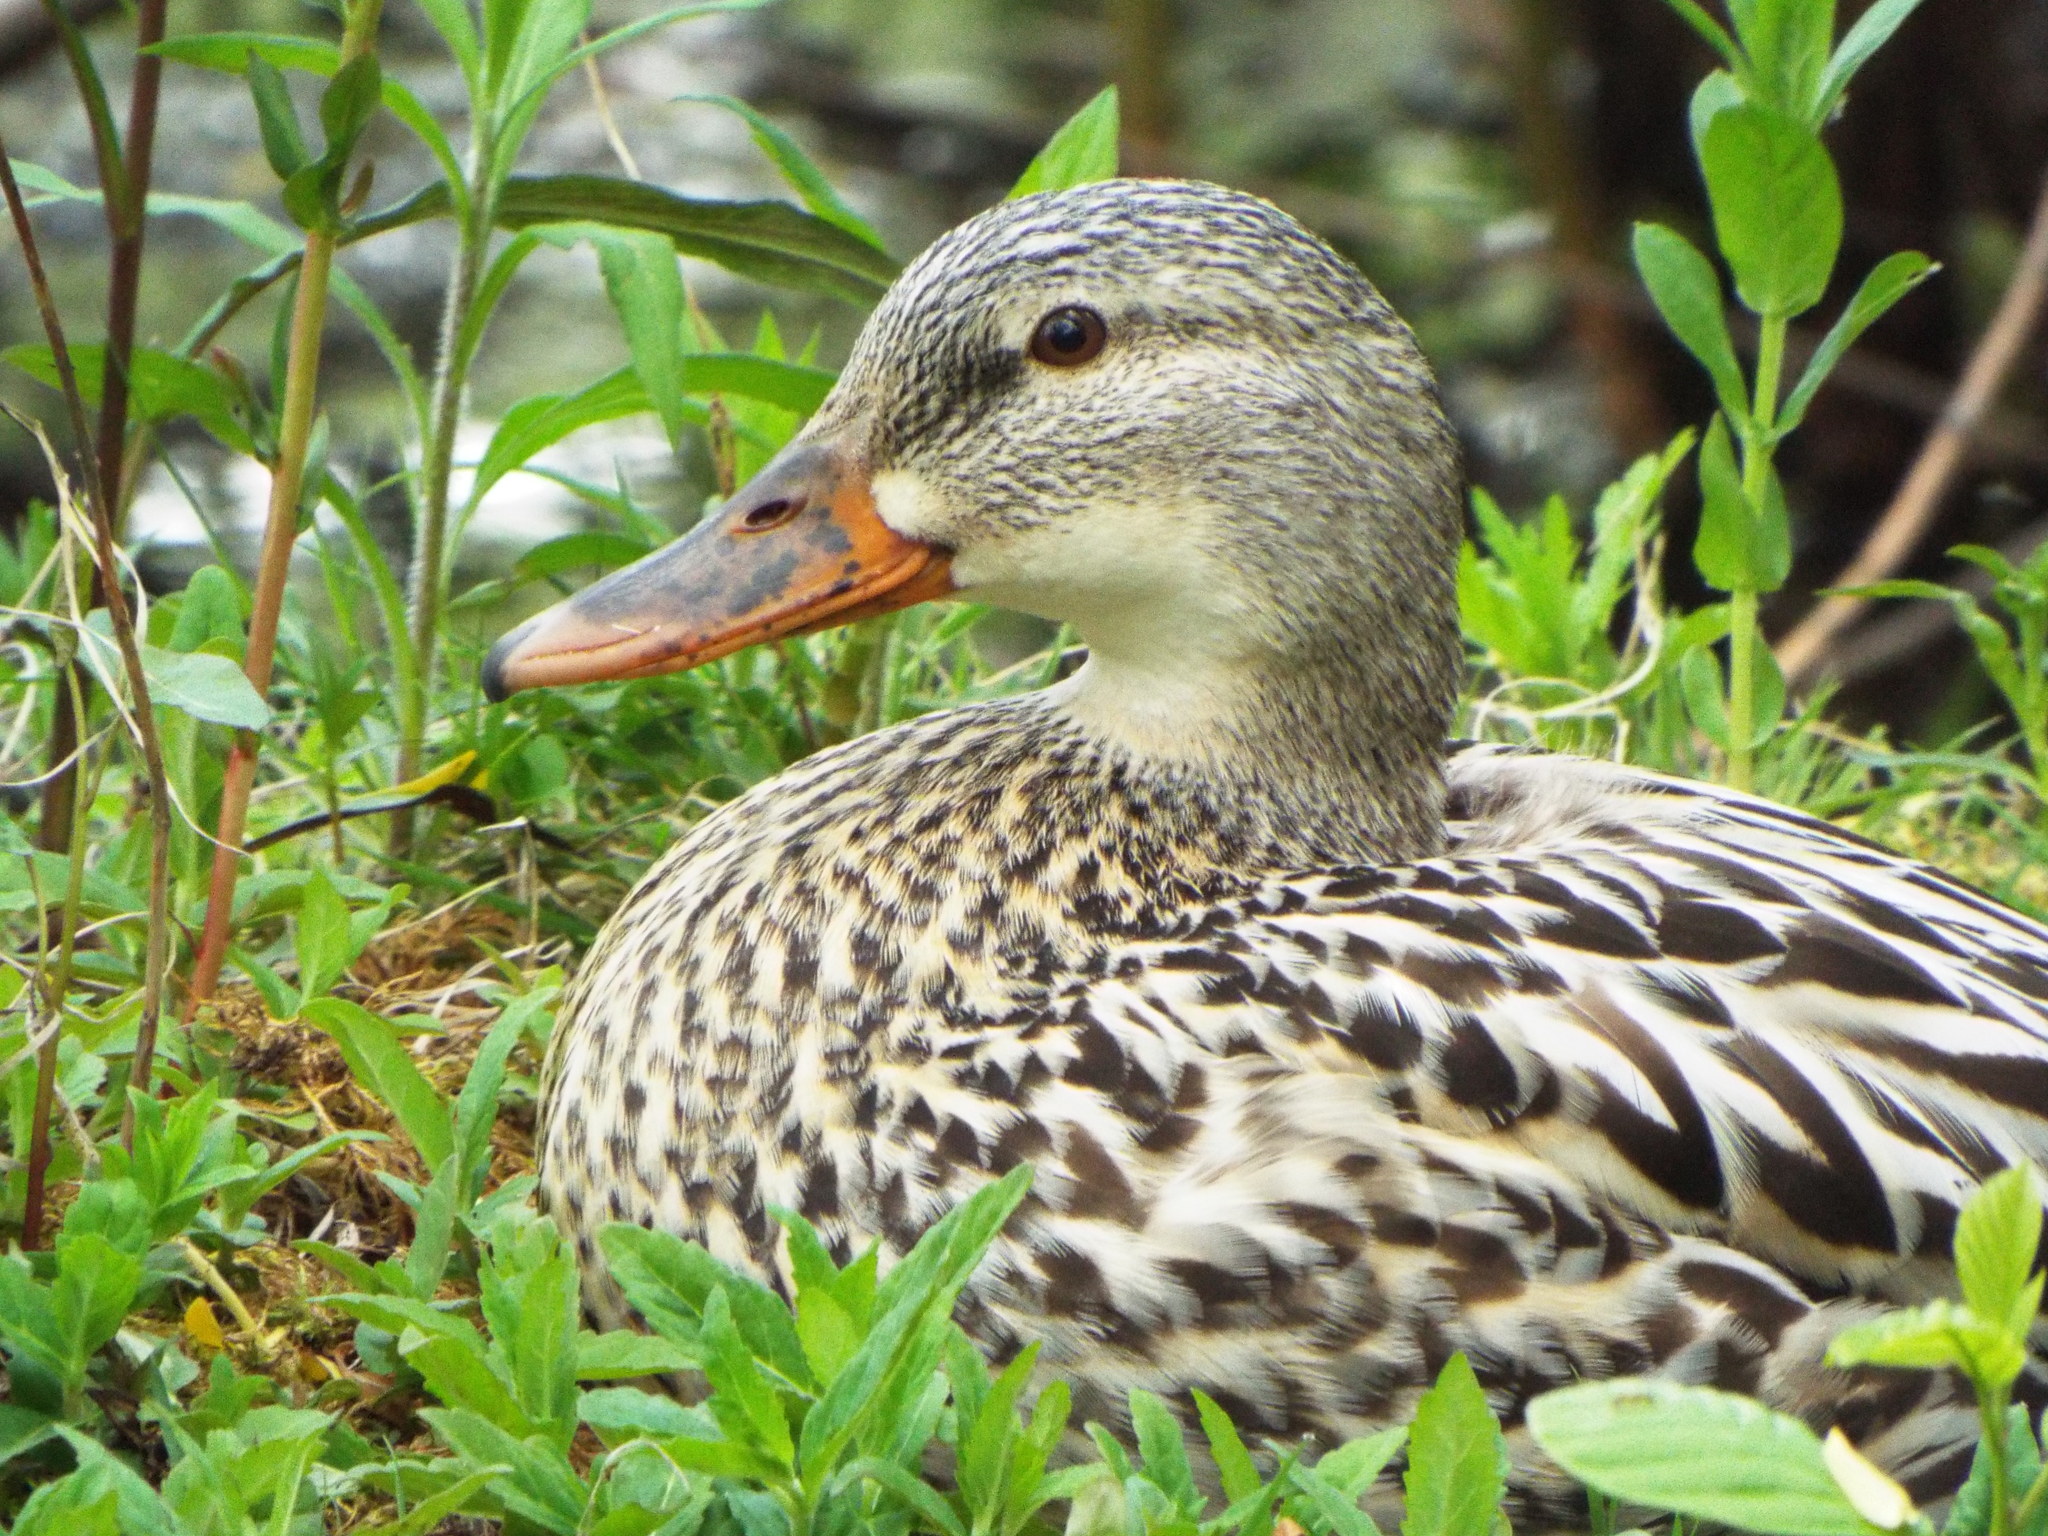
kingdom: Animalia
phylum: Chordata
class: Aves
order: Anseriformes
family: Anatidae
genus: Anas
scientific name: Anas platyrhynchos
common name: Mallard
